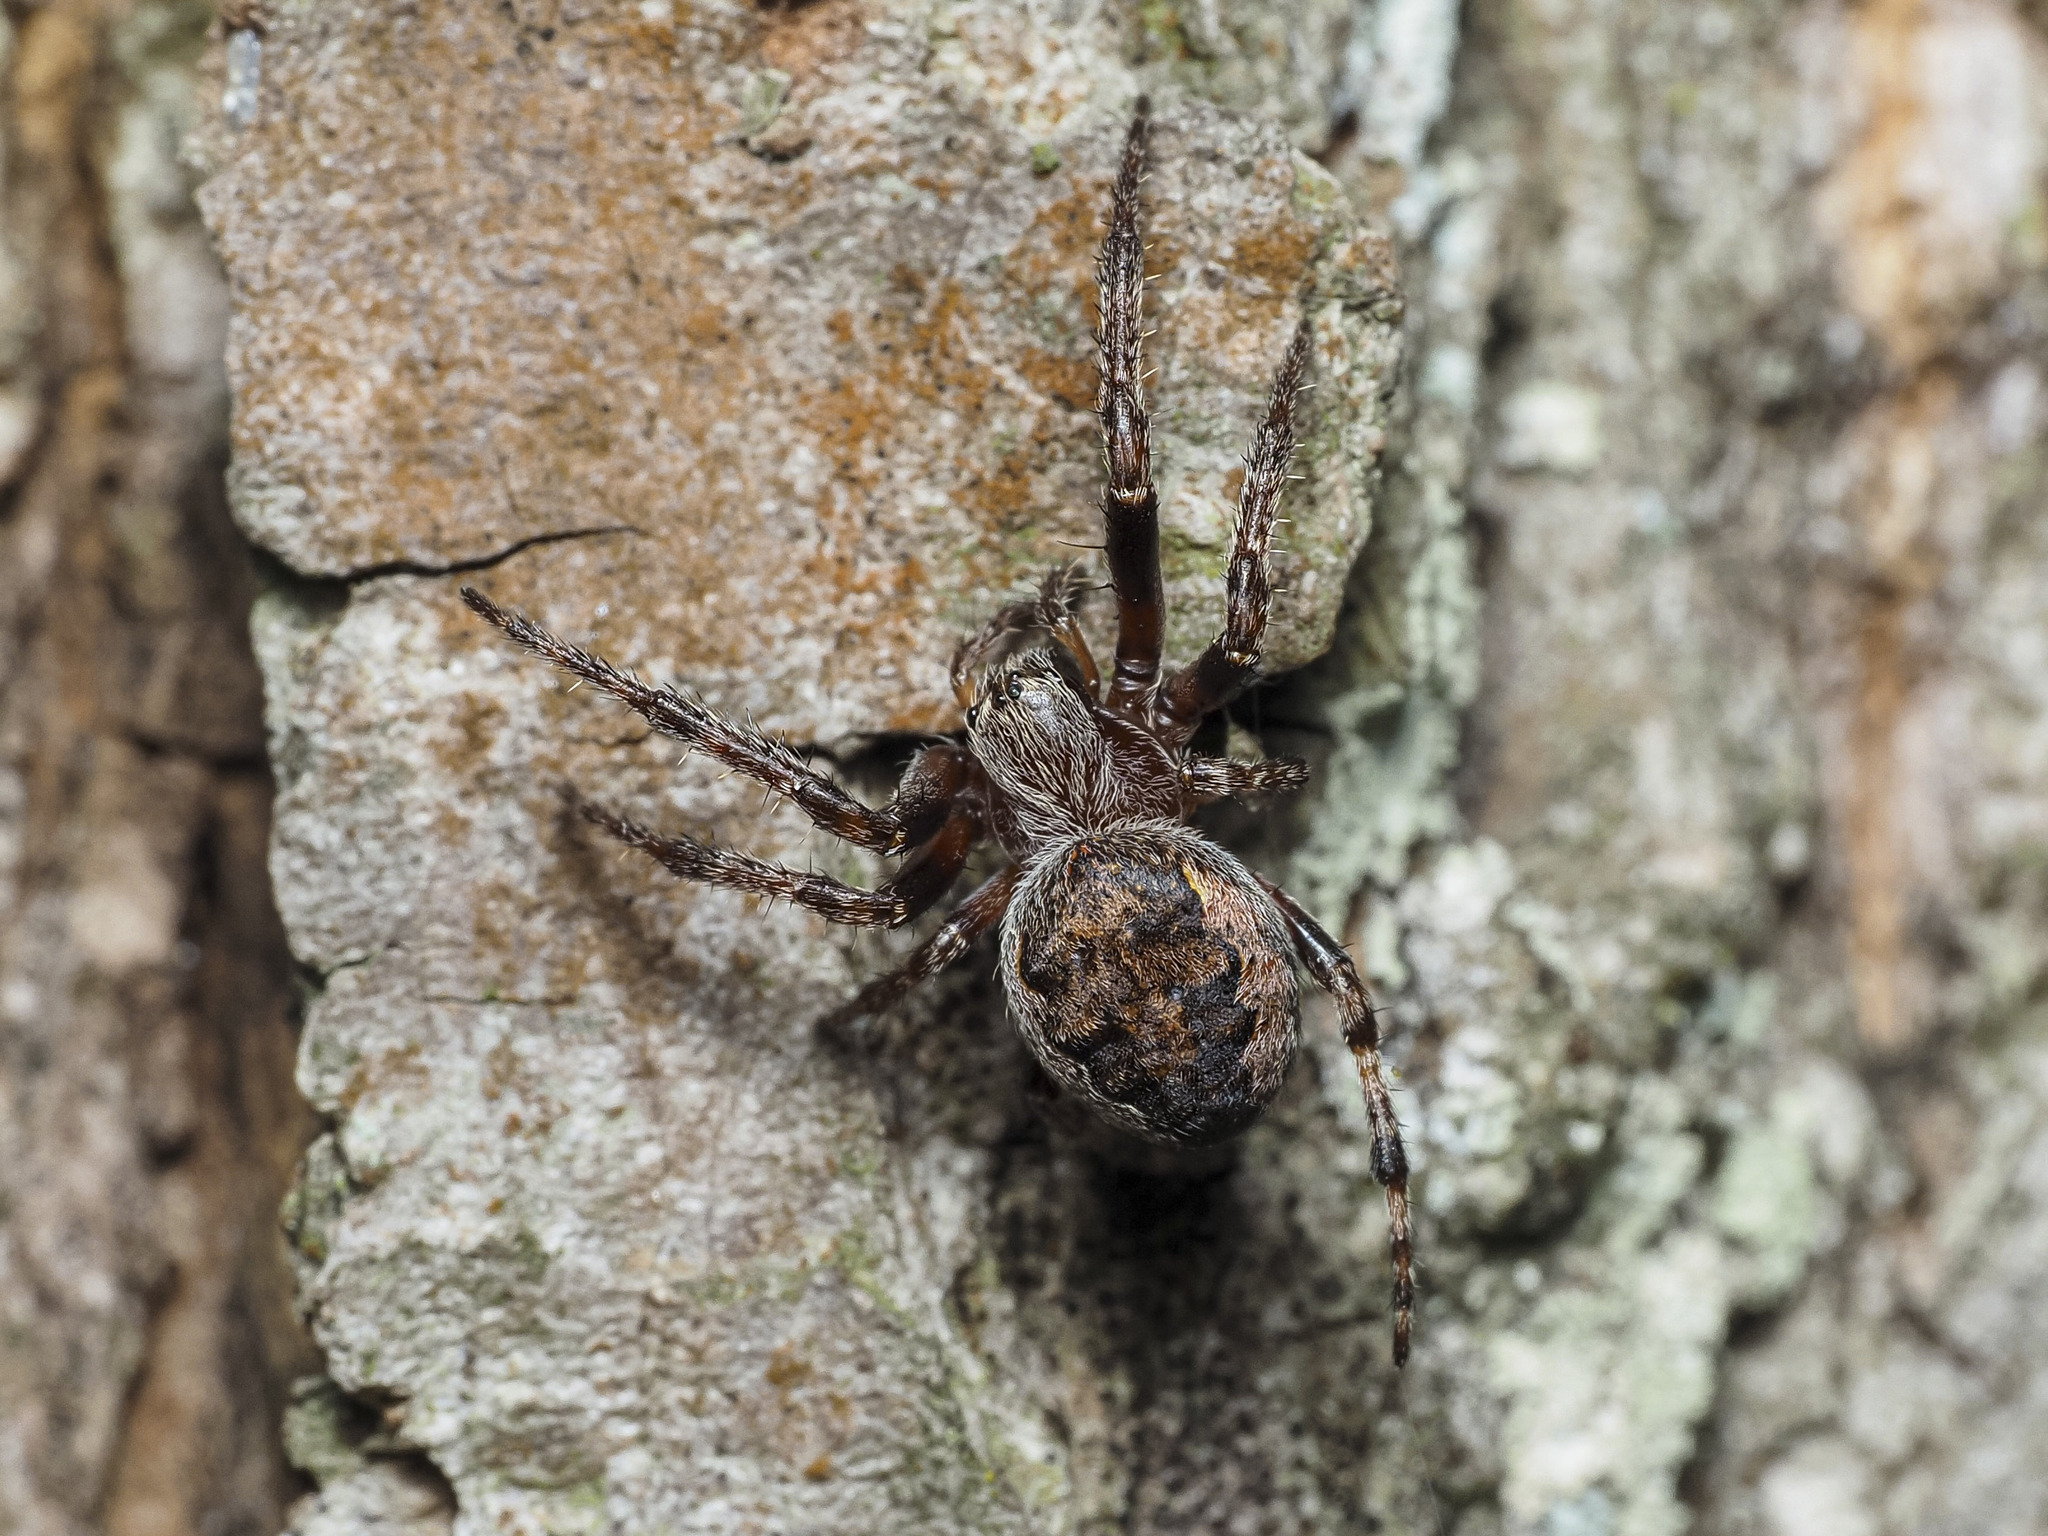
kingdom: Animalia
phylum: Arthropoda
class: Arachnida
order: Araneae
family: Araneidae
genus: Larinioides
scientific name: Larinioides patagiatus
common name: Ornamental orbweaver
